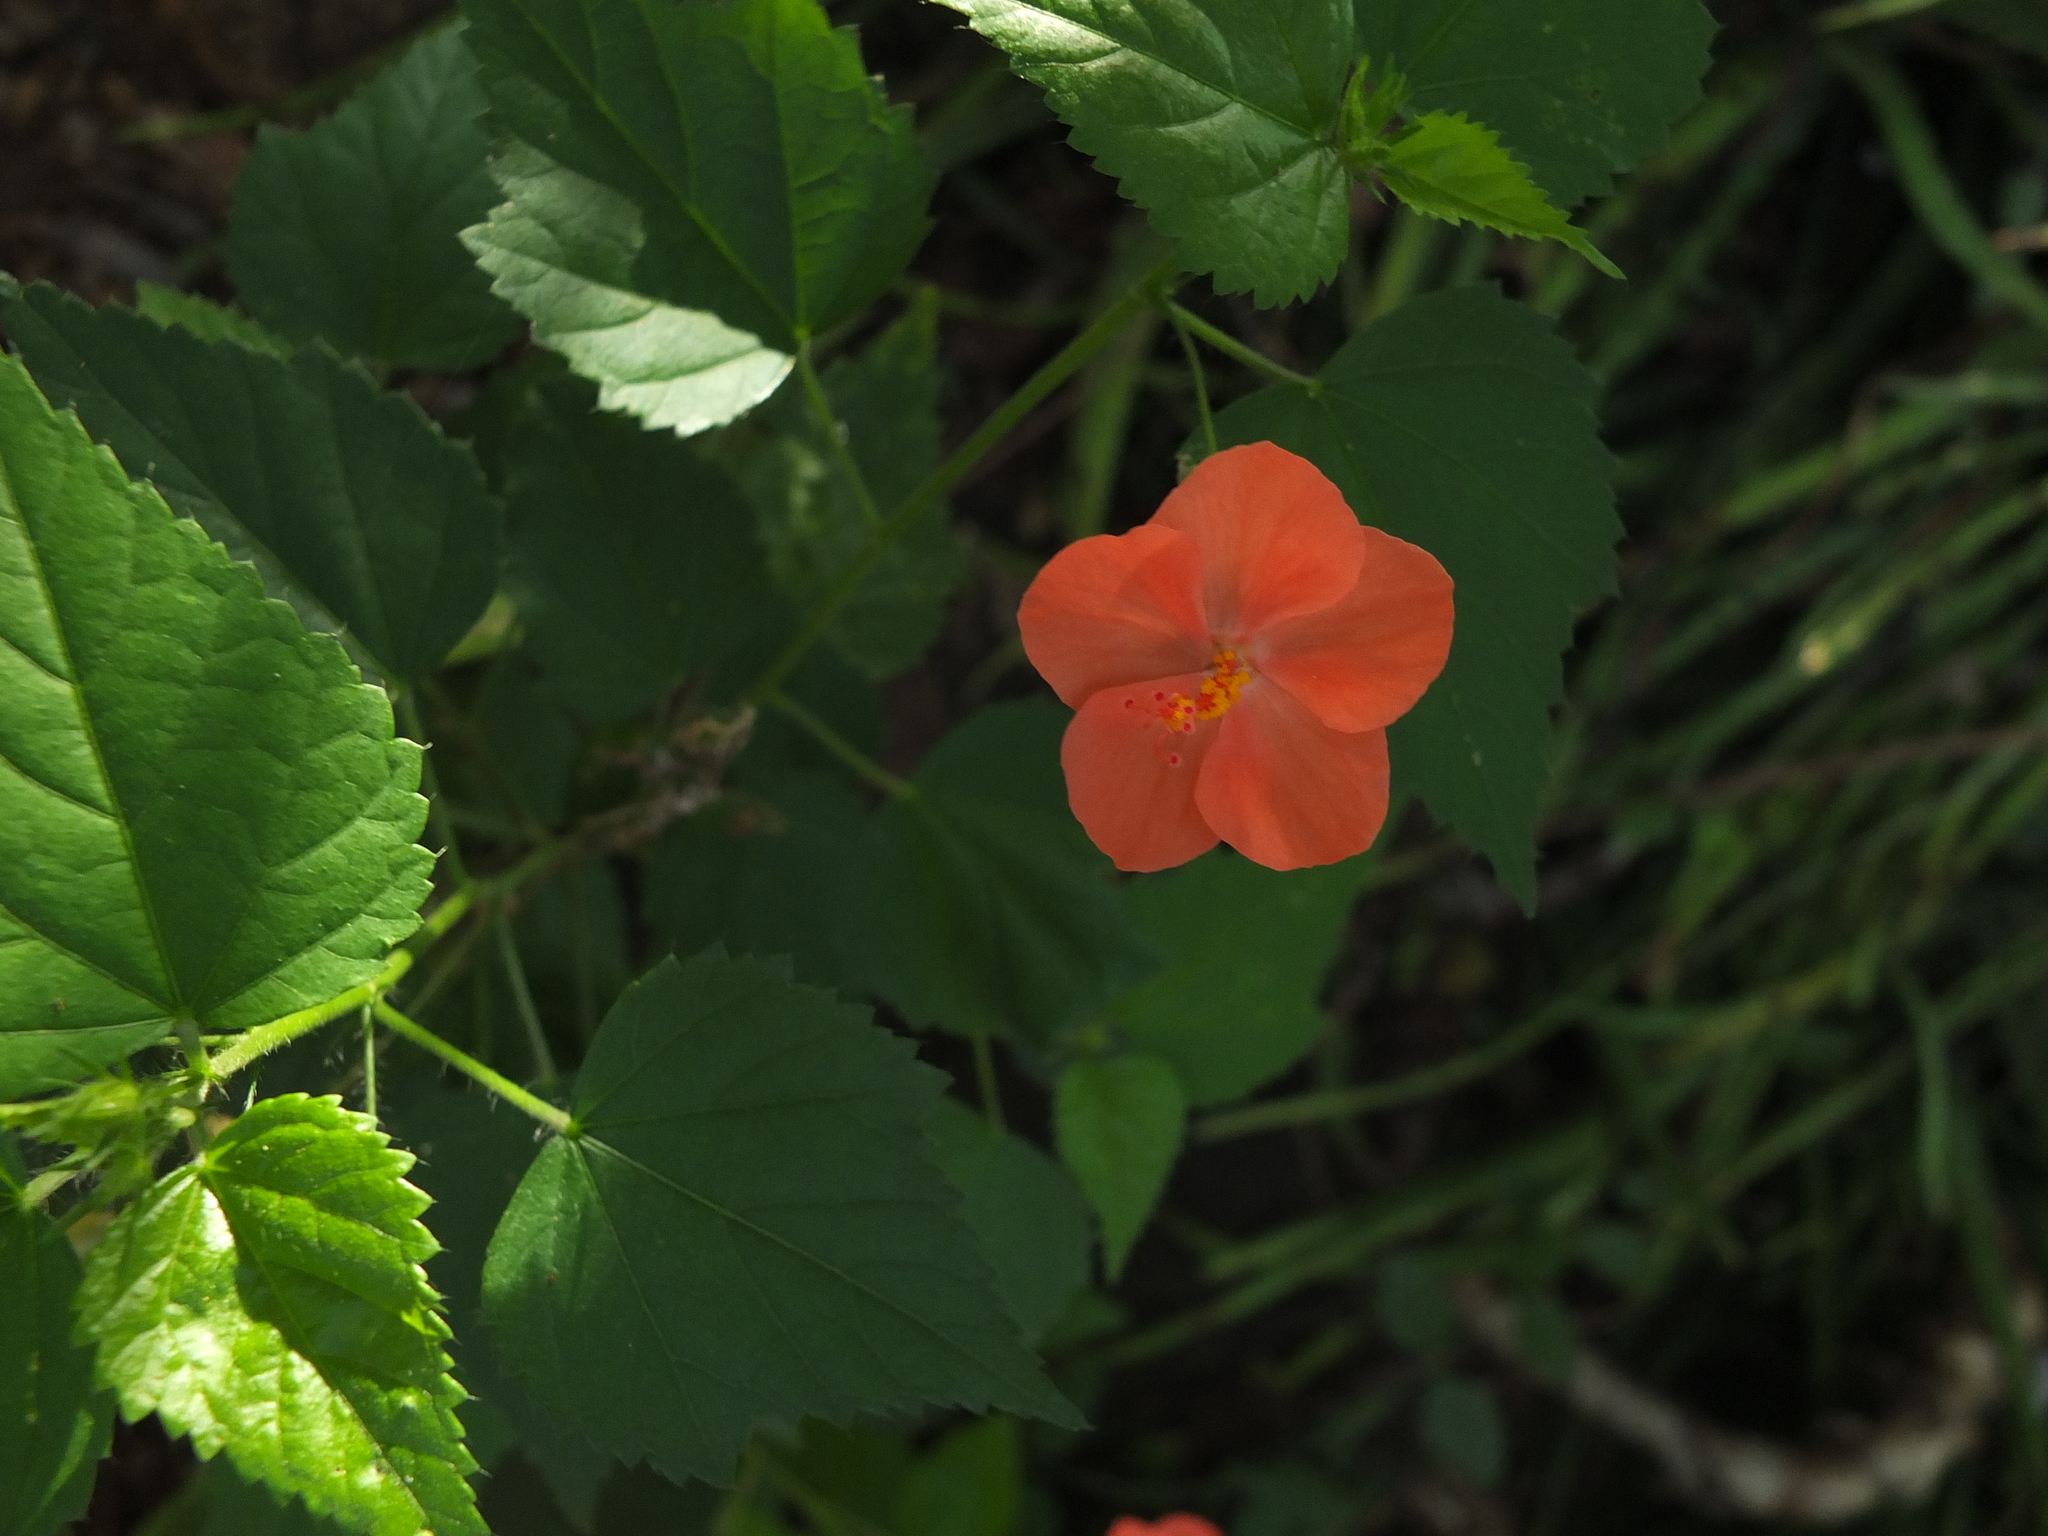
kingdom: Plantae
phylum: Tracheophyta
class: Magnoliopsida
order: Malvales
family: Malvaceae
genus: Hibiscus
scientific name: Hibiscus hirtus
